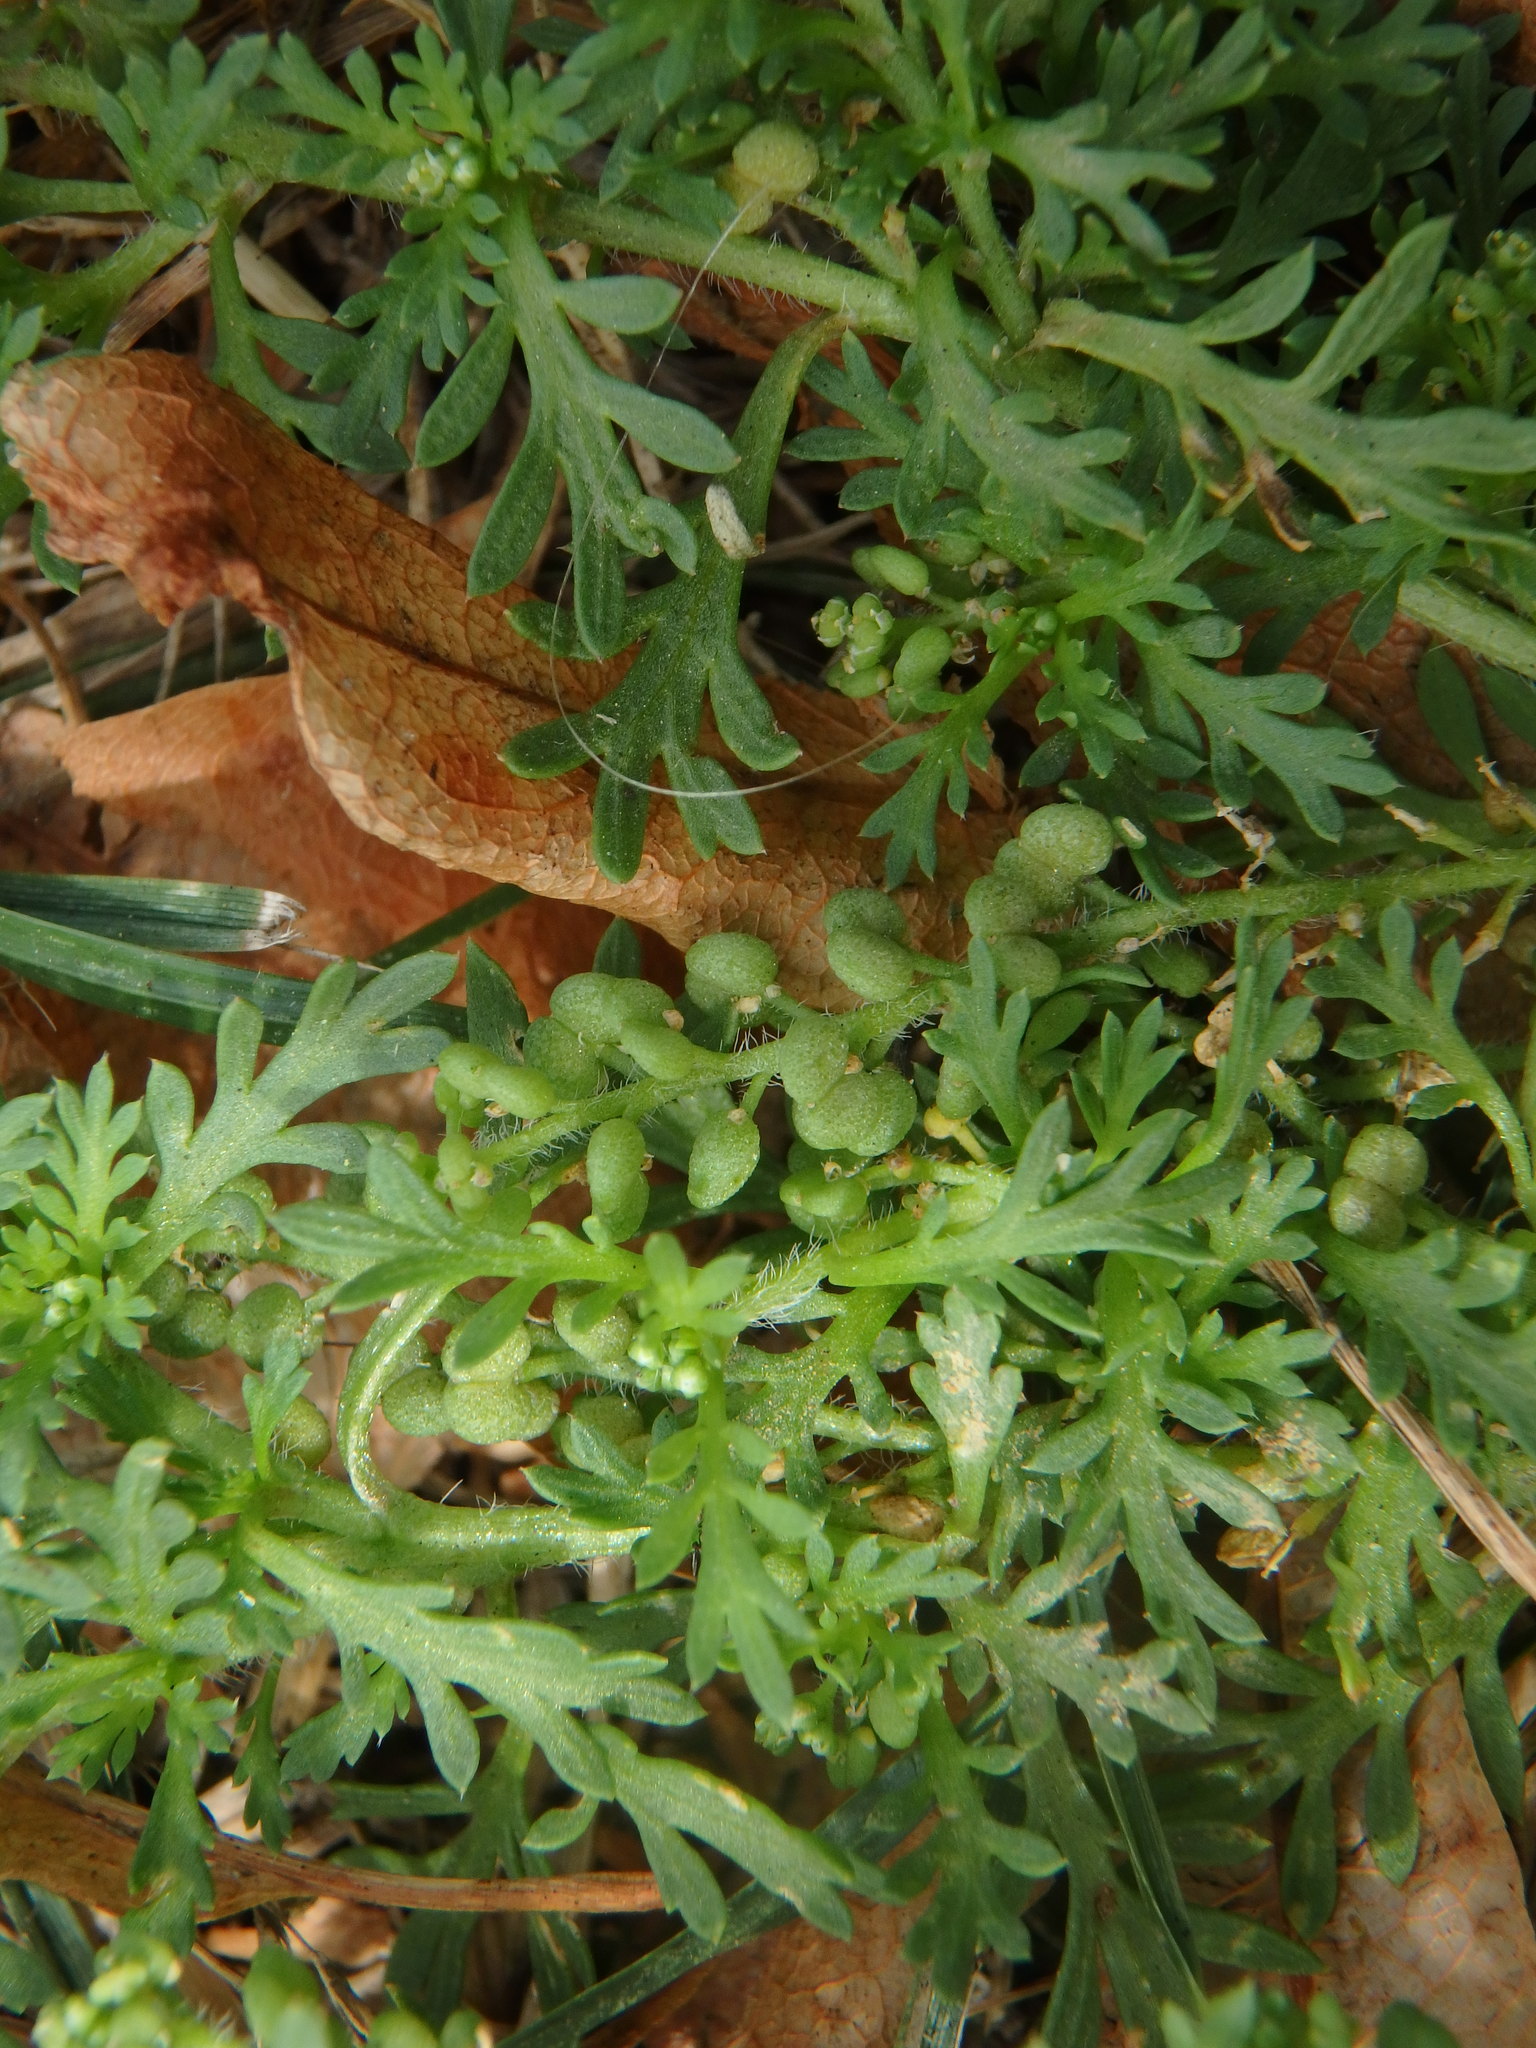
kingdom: Plantae
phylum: Tracheophyta
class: Magnoliopsida
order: Brassicales
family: Brassicaceae
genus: Lepidium
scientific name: Lepidium didymum
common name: Lesser swinecress
